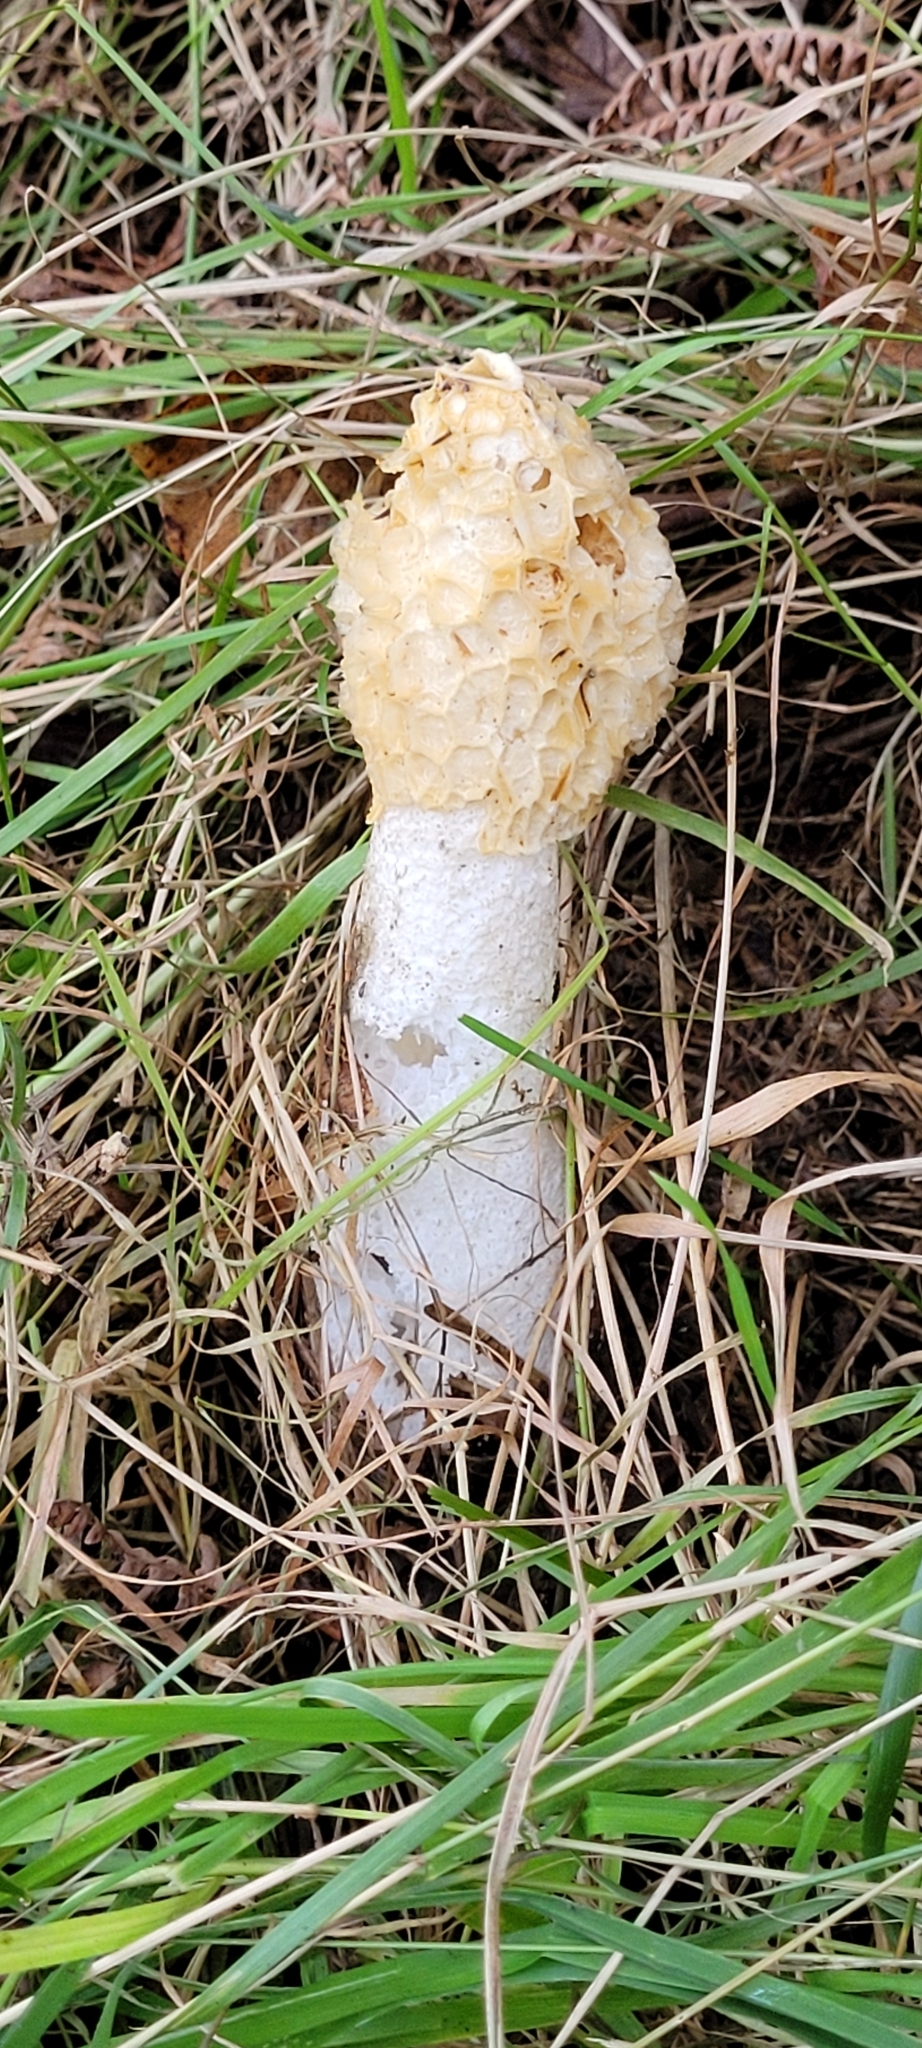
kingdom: Fungi
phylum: Basidiomycota
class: Agaricomycetes
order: Phallales
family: Phallaceae
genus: Phallus
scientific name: Phallus impudicus
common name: Common stinkhorn
